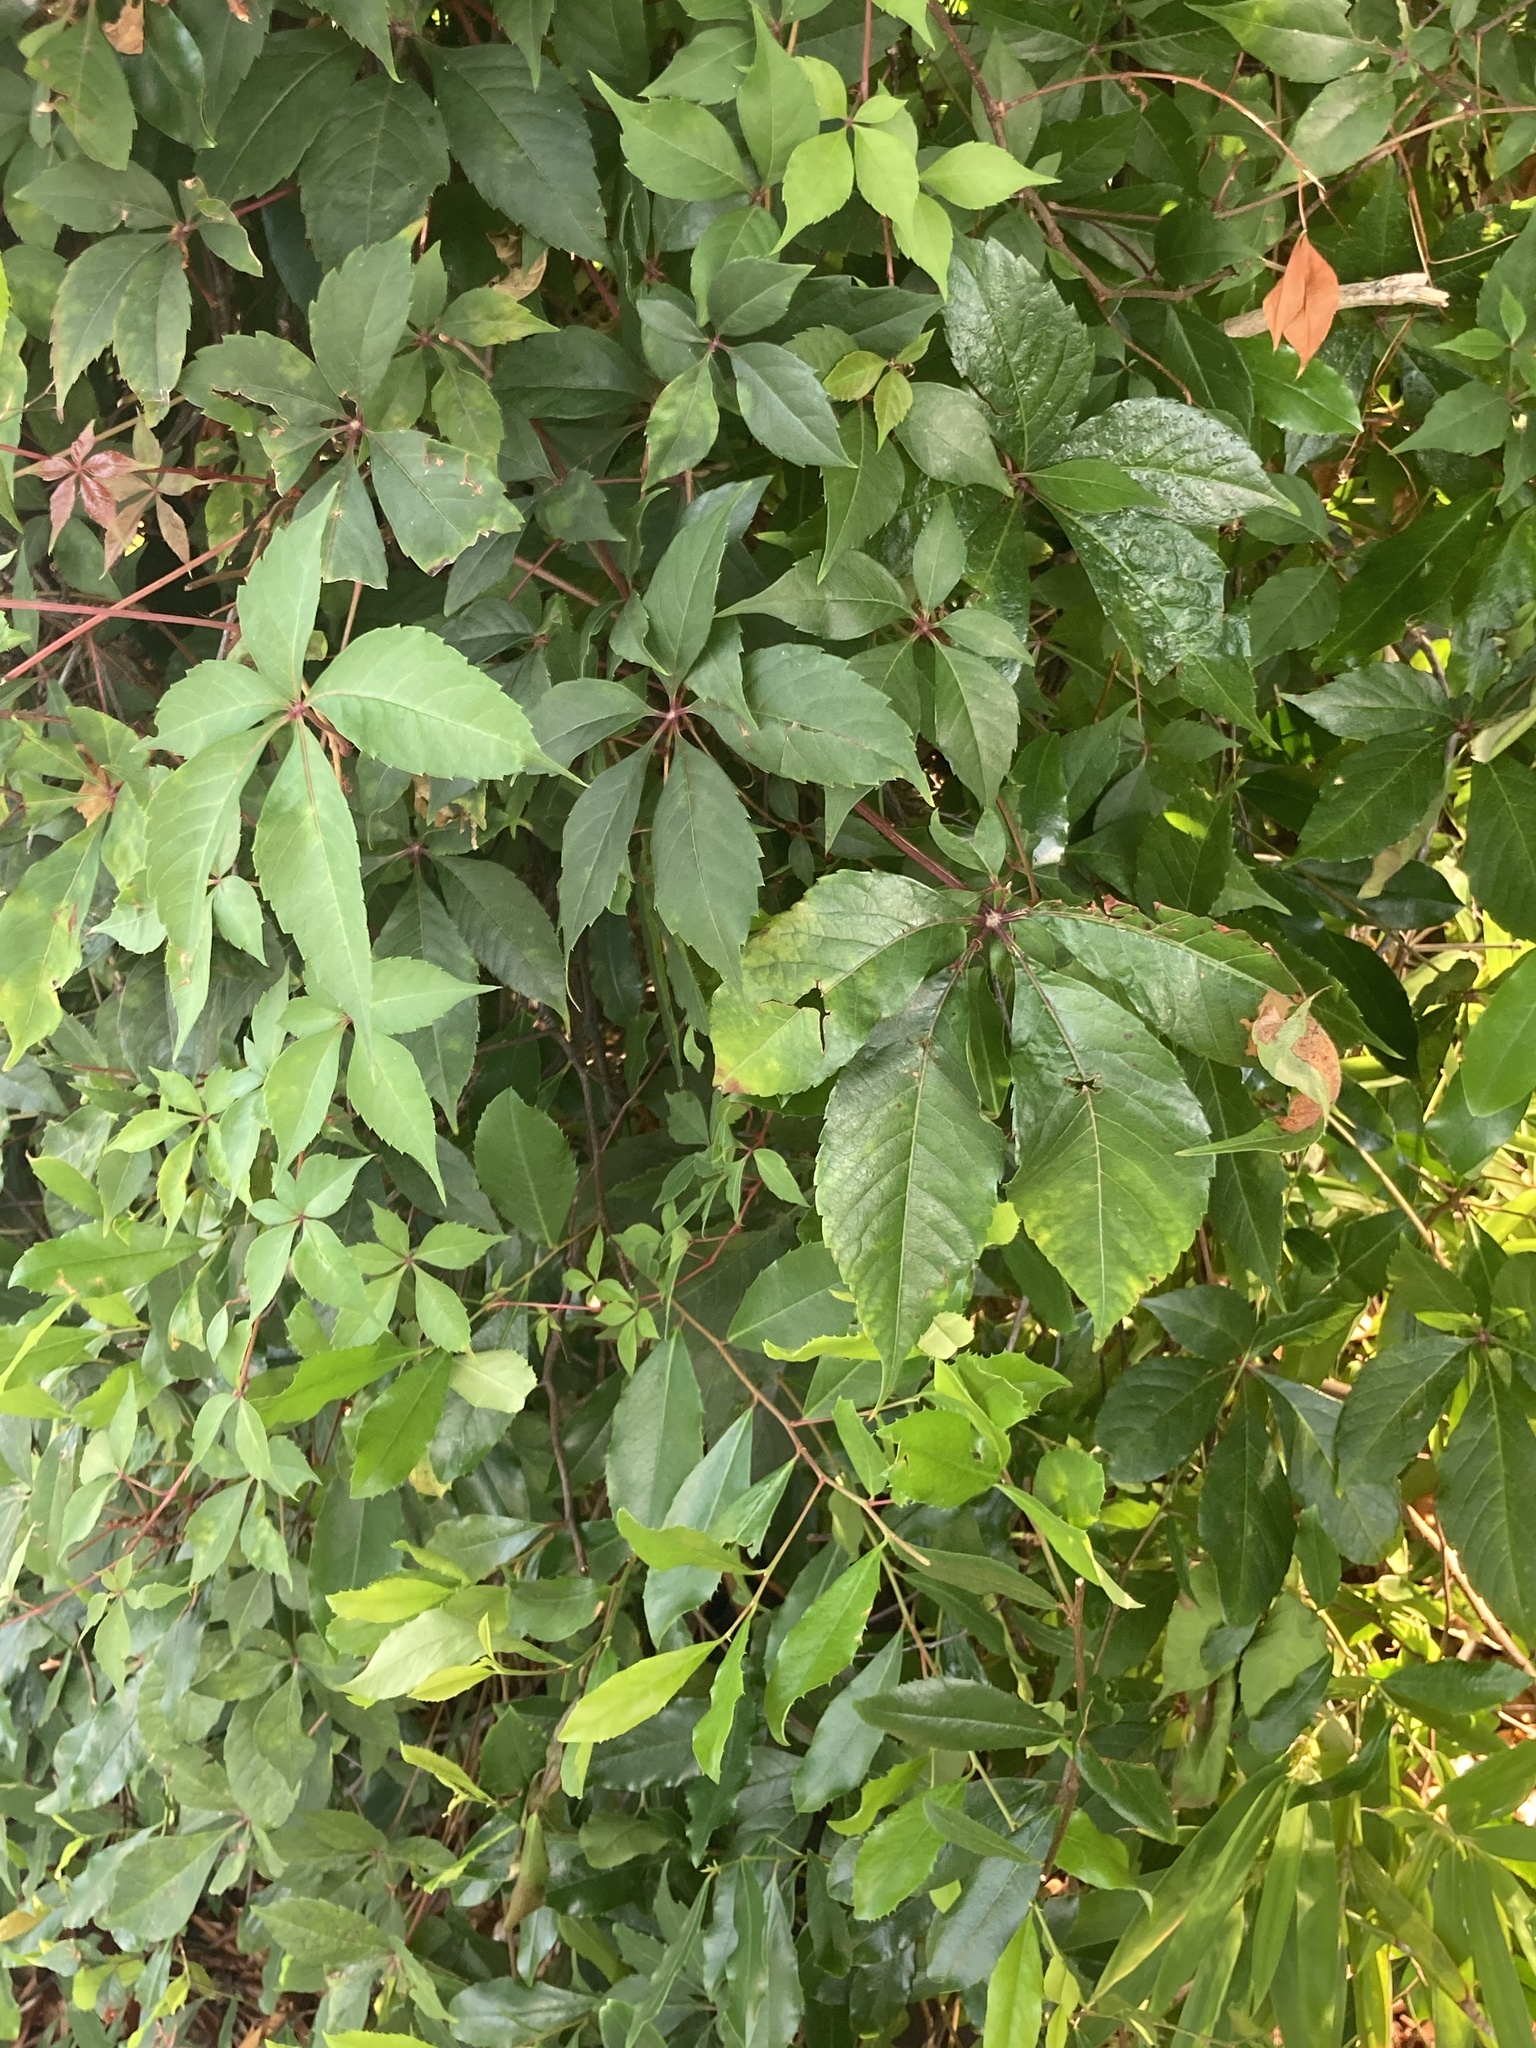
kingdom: Plantae
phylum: Tracheophyta
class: Magnoliopsida
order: Vitales
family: Vitaceae
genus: Parthenocissus
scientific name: Parthenocissus quinquefolia
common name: Virginia-creeper
